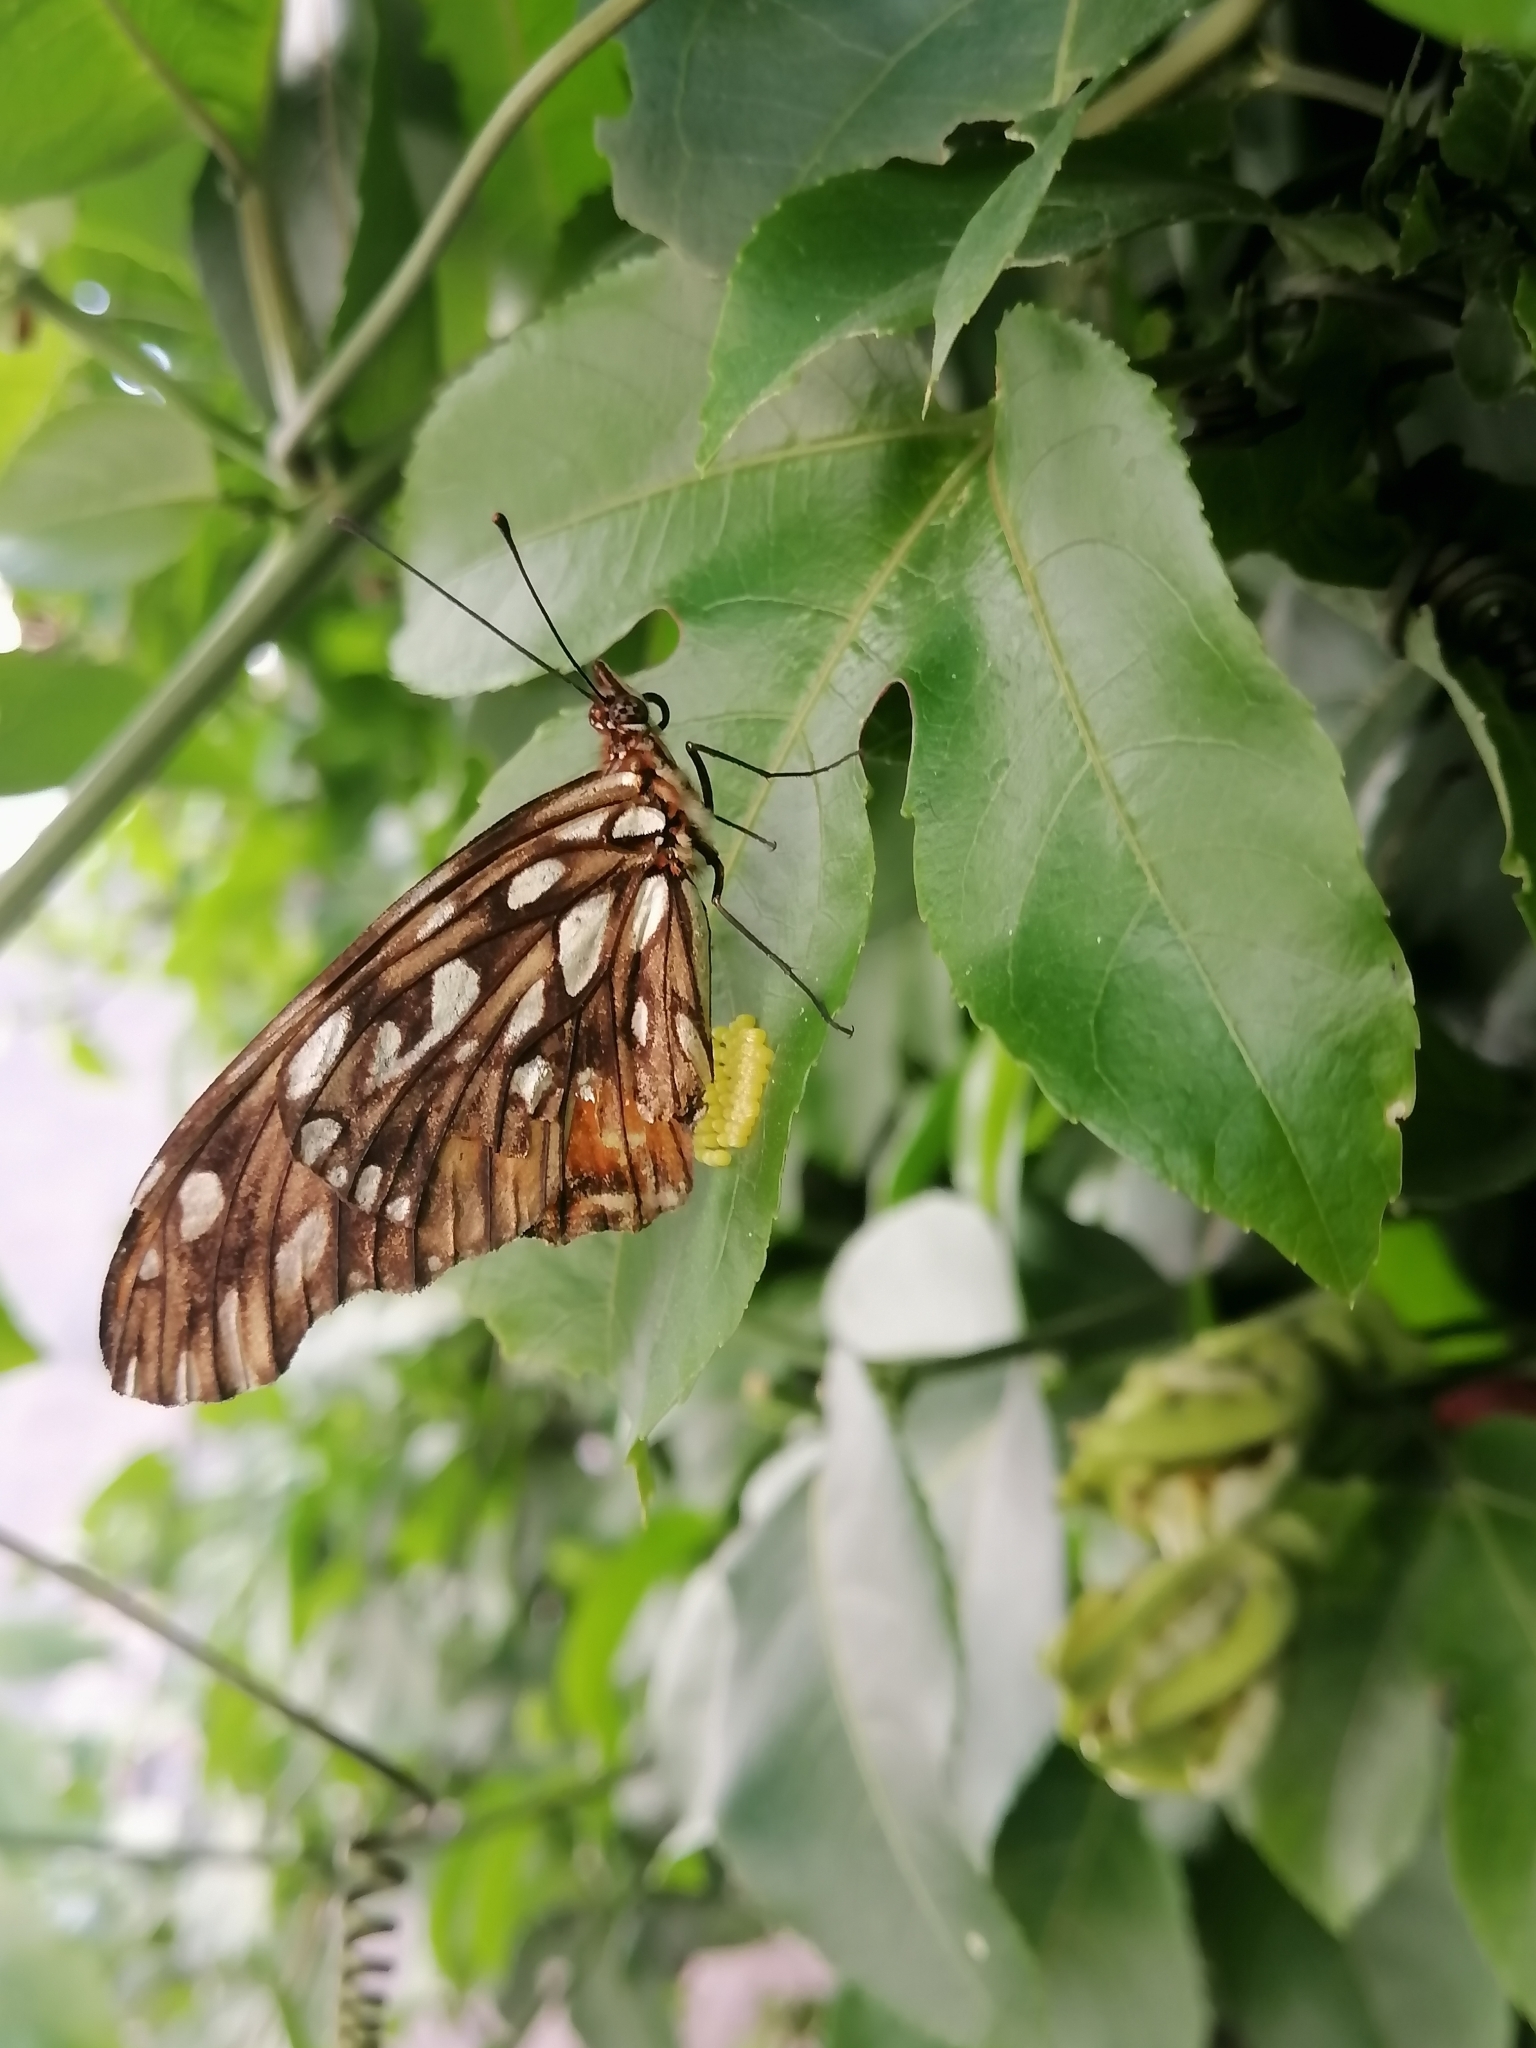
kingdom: Animalia
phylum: Arthropoda
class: Insecta
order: Lepidoptera
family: Nymphalidae
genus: Dione
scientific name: Dione juno
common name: Juno silverspot
